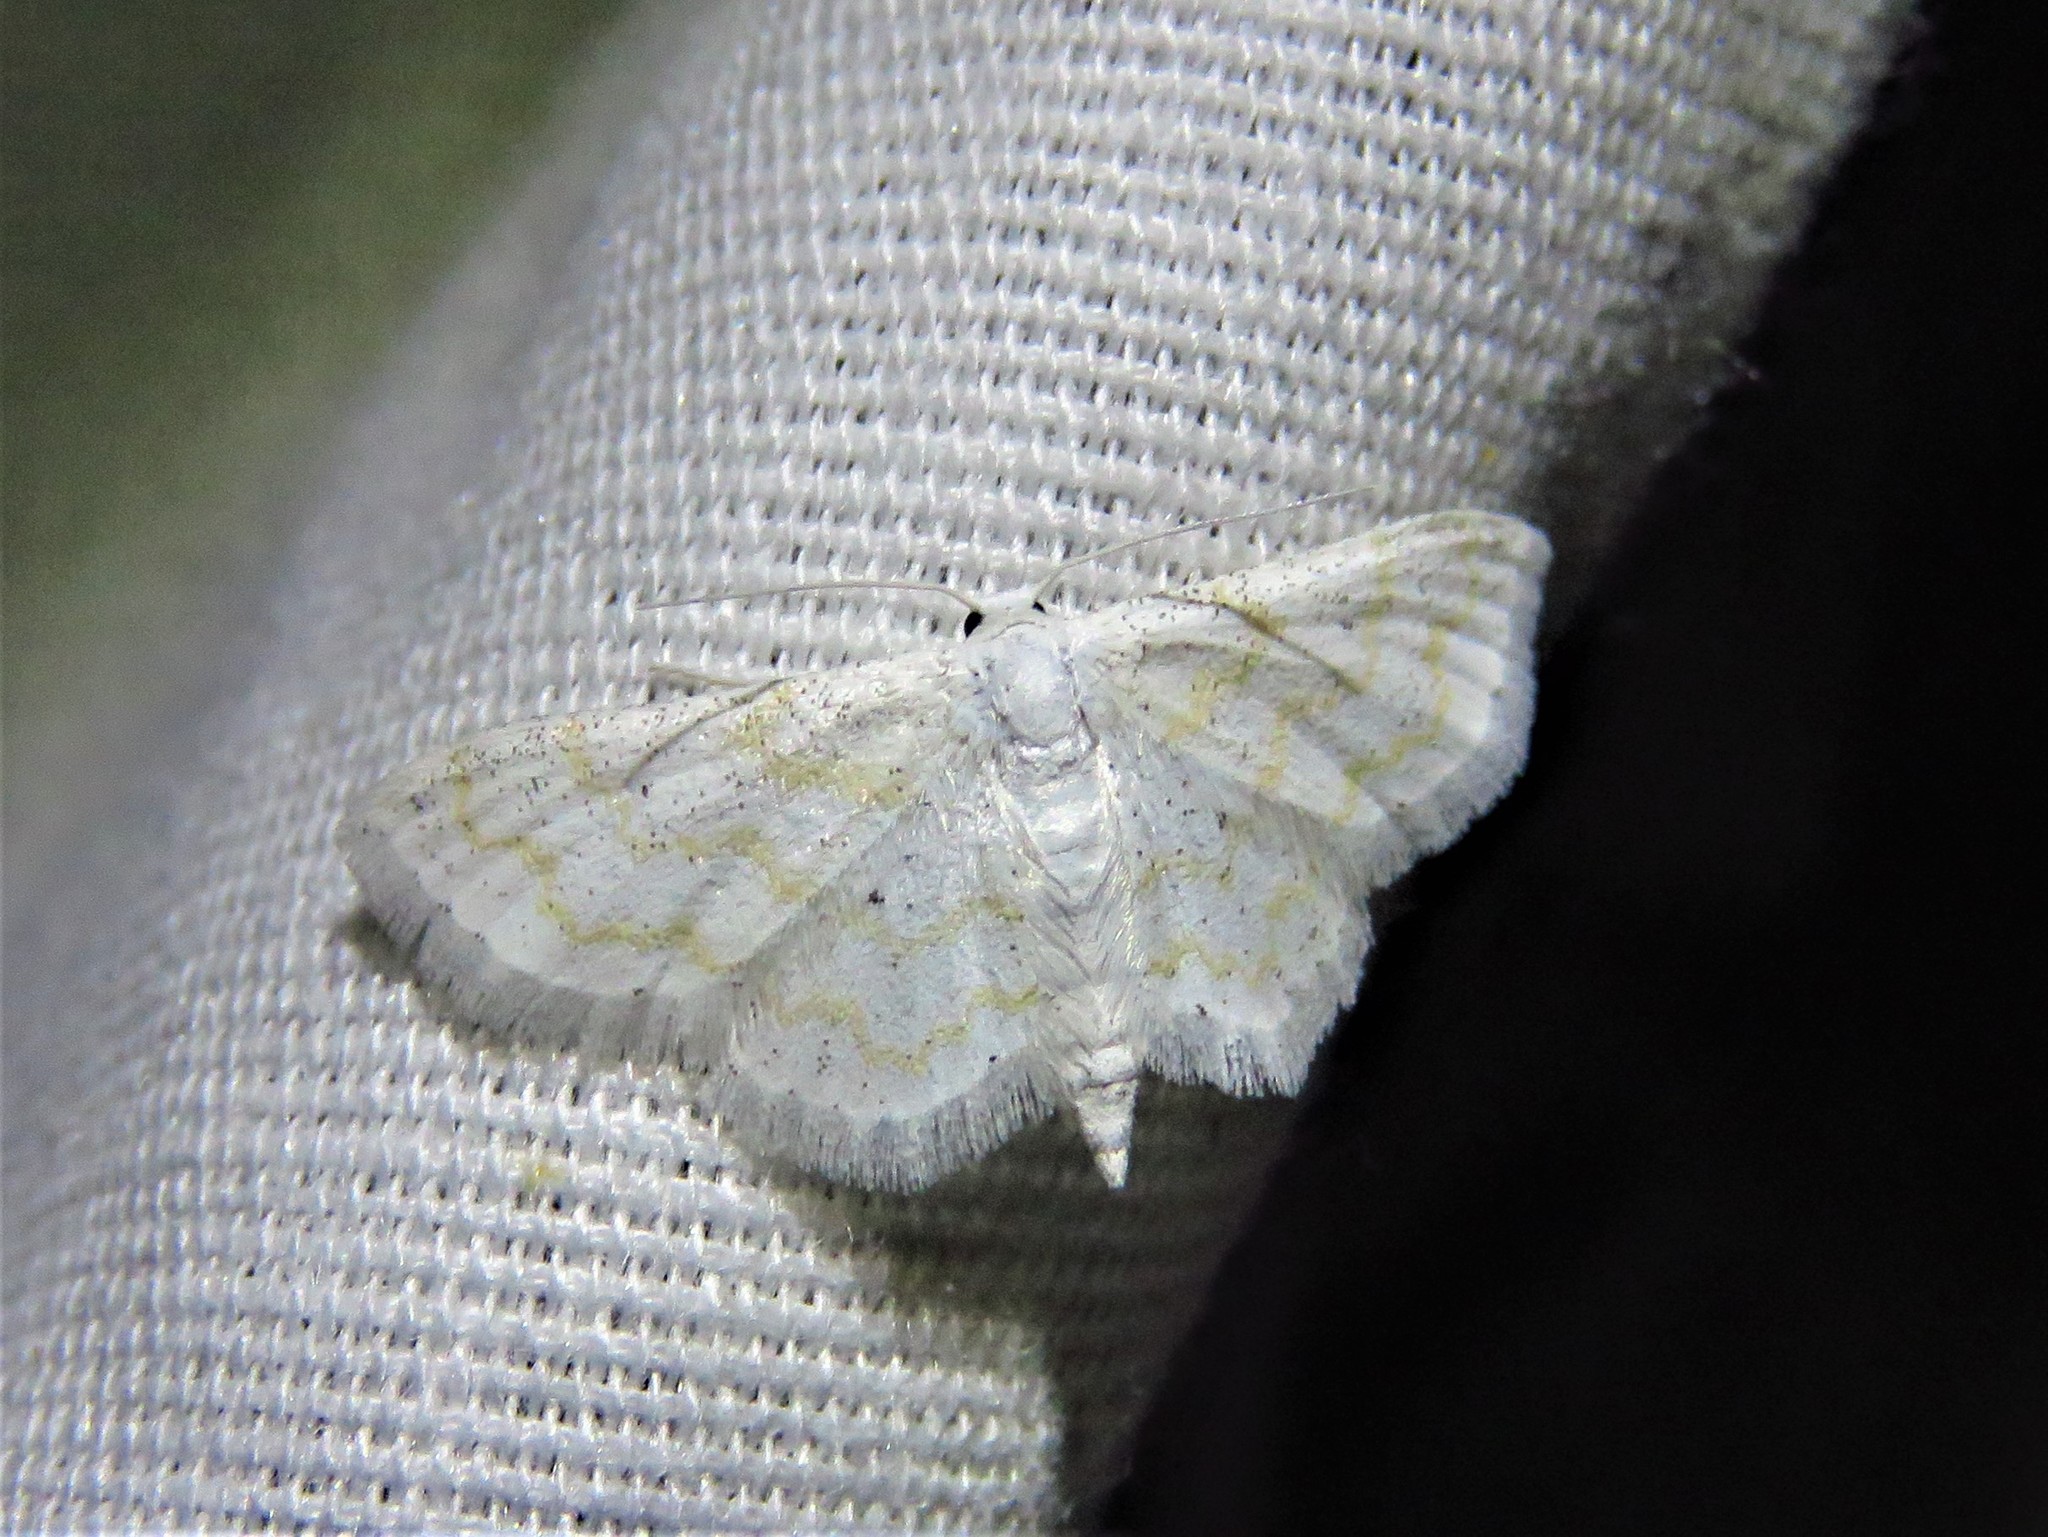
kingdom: Animalia
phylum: Arthropoda
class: Insecta
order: Lepidoptera
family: Geometridae
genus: Lobocleta
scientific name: Lobocleta peralbata
